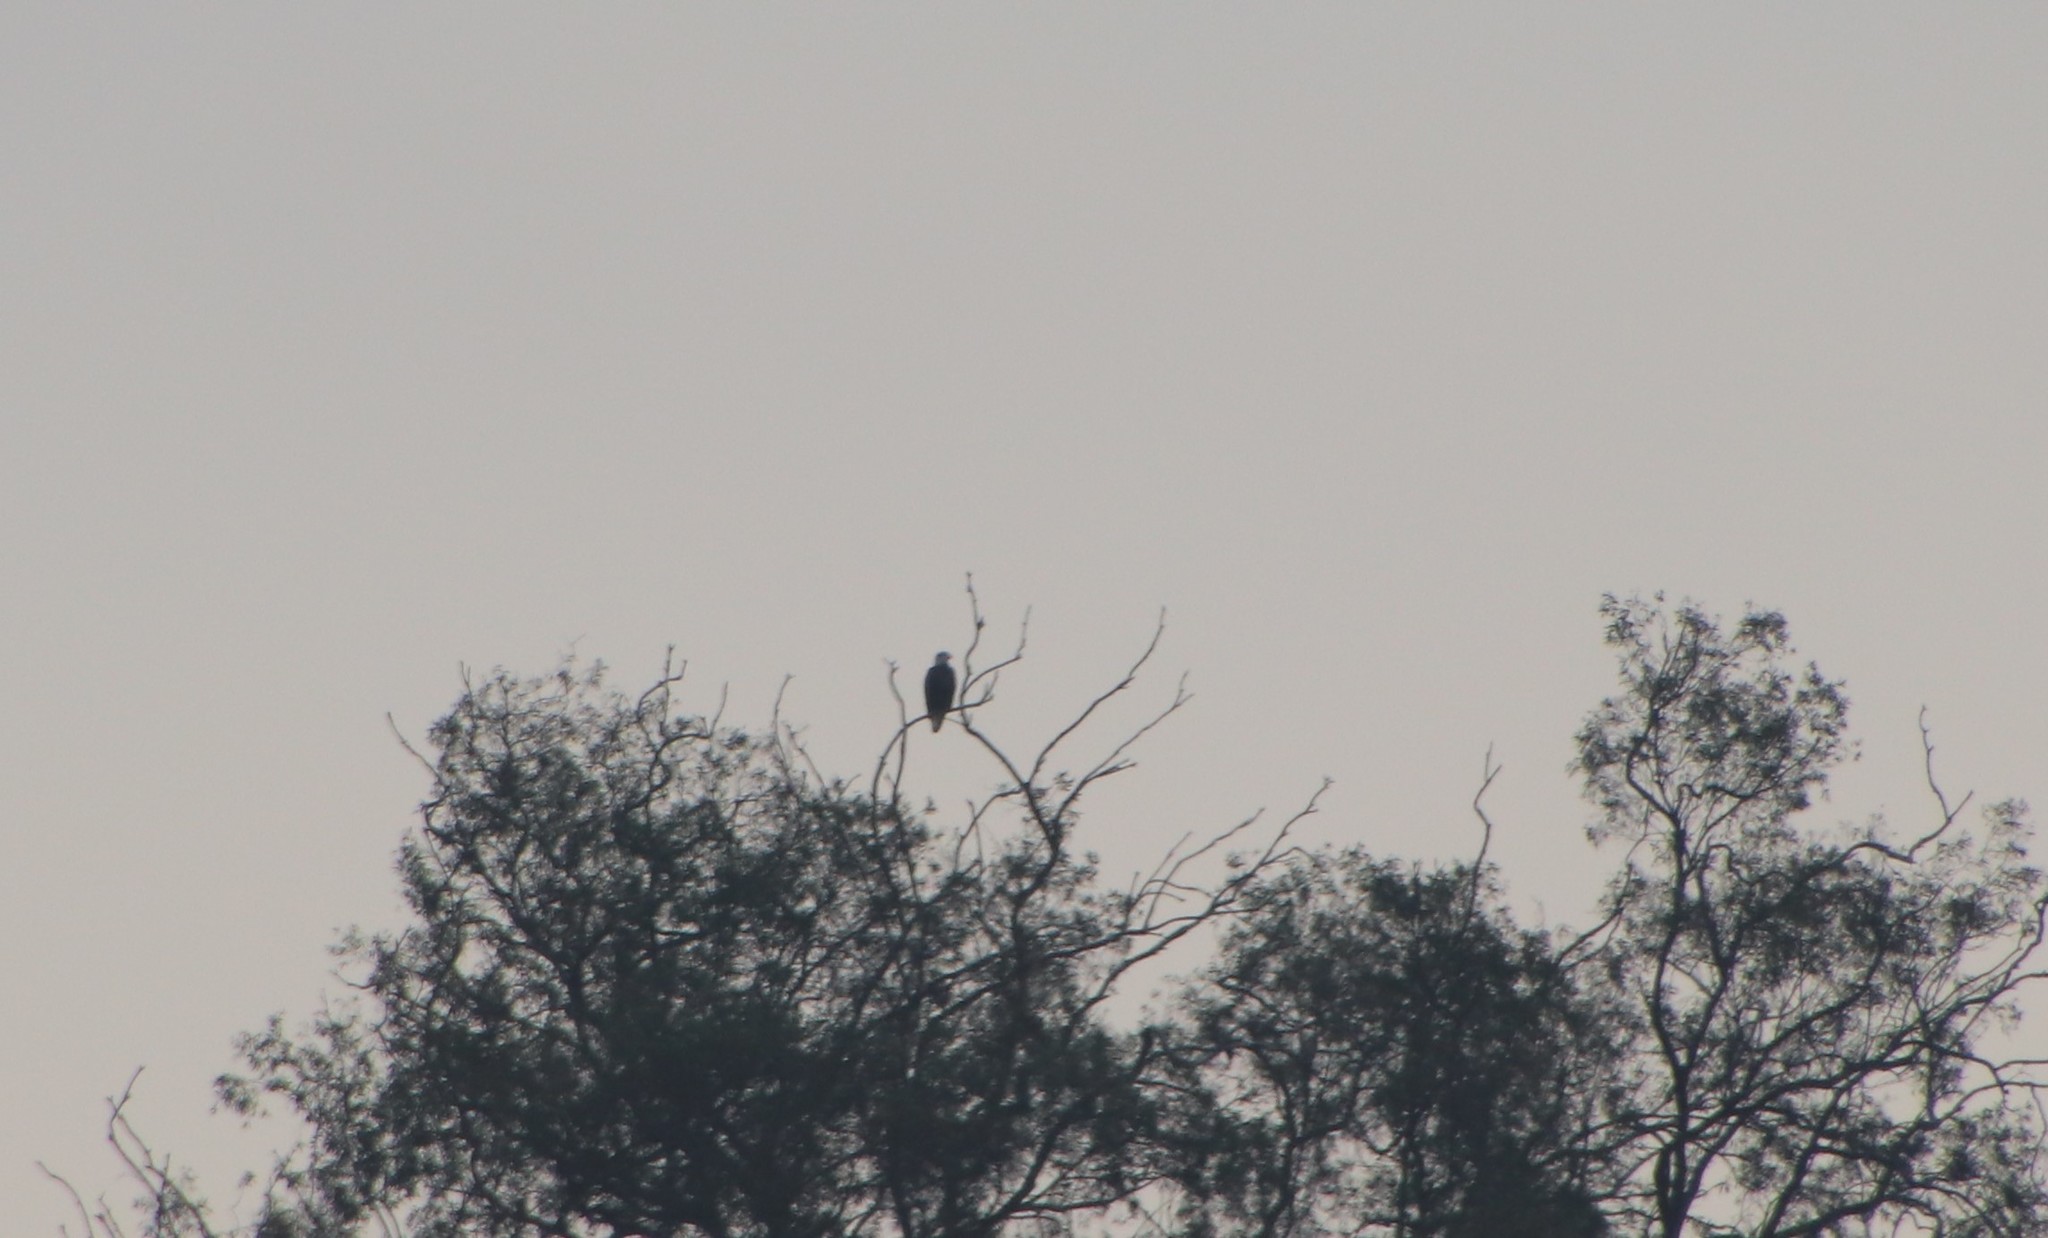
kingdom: Animalia
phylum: Chordata
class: Aves
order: Accipitriformes
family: Accipitridae
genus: Haliaeetus
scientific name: Haliaeetus leucocephalus
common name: Bald eagle
